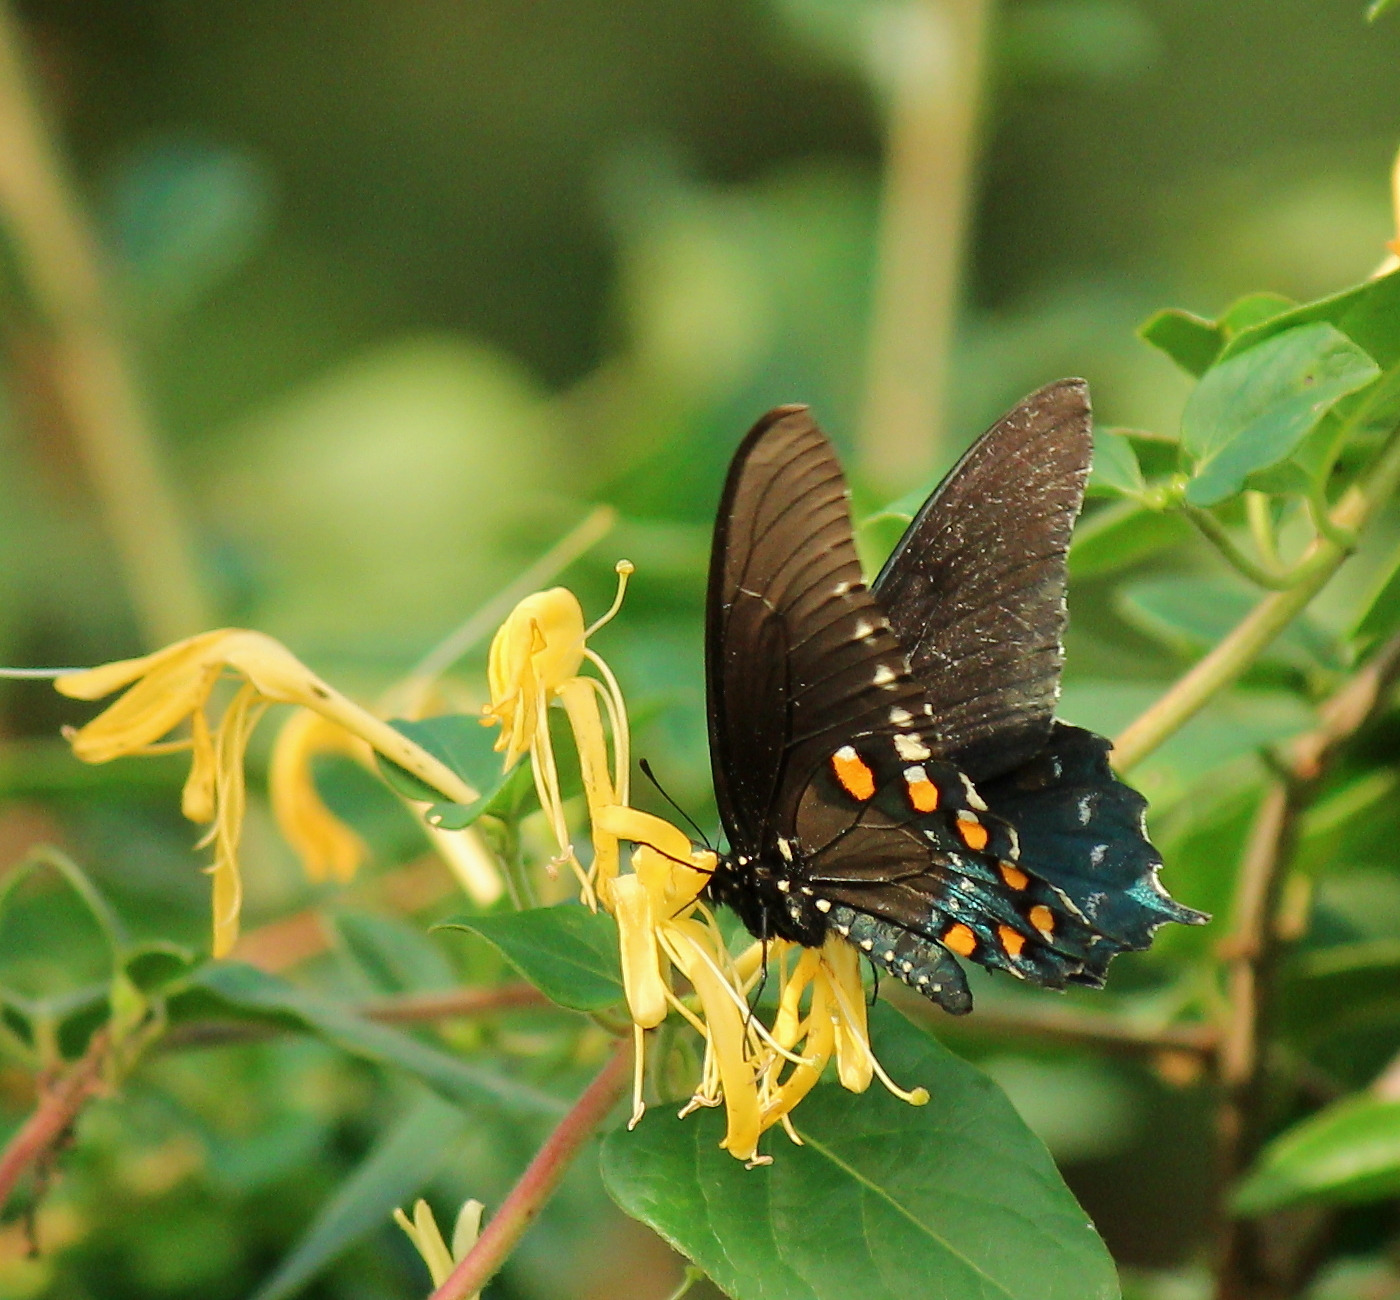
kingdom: Animalia
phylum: Arthropoda
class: Insecta
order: Lepidoptera
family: Papilionidae
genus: Battus
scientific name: Battus philenor
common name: Pipevine swallowtail
